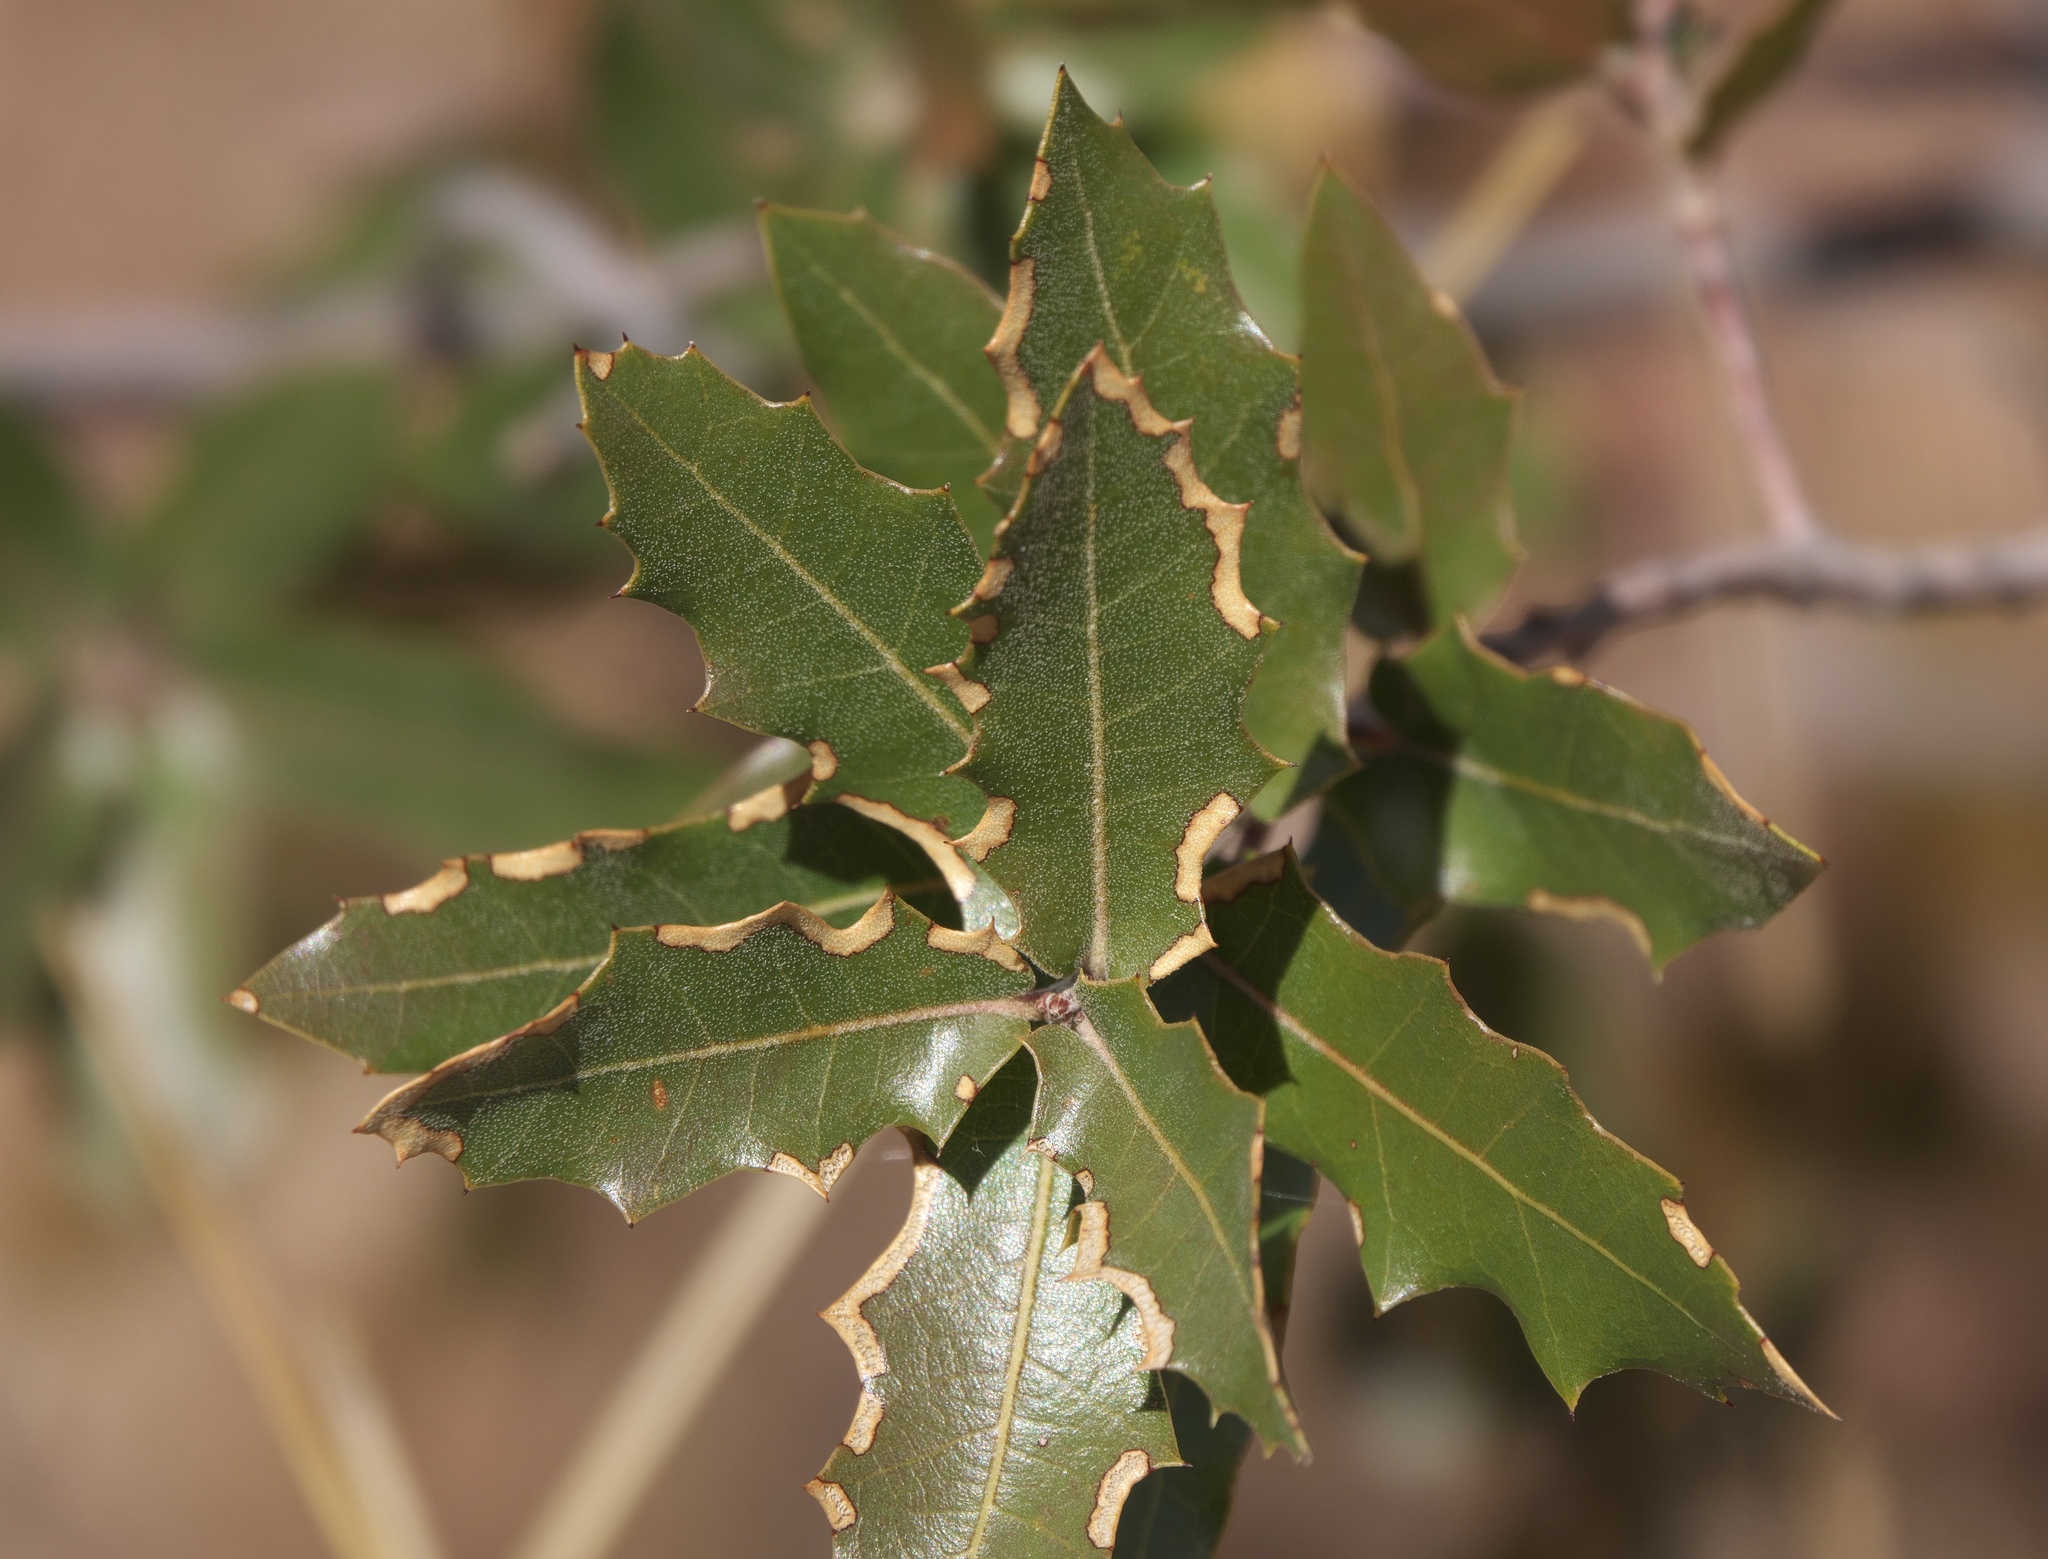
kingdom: Plantae
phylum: Tracheophyta
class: Magnoliopsida
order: Fagales
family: Fagaceae
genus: Quercus
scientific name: Quercus emoryi
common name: Emory oak
